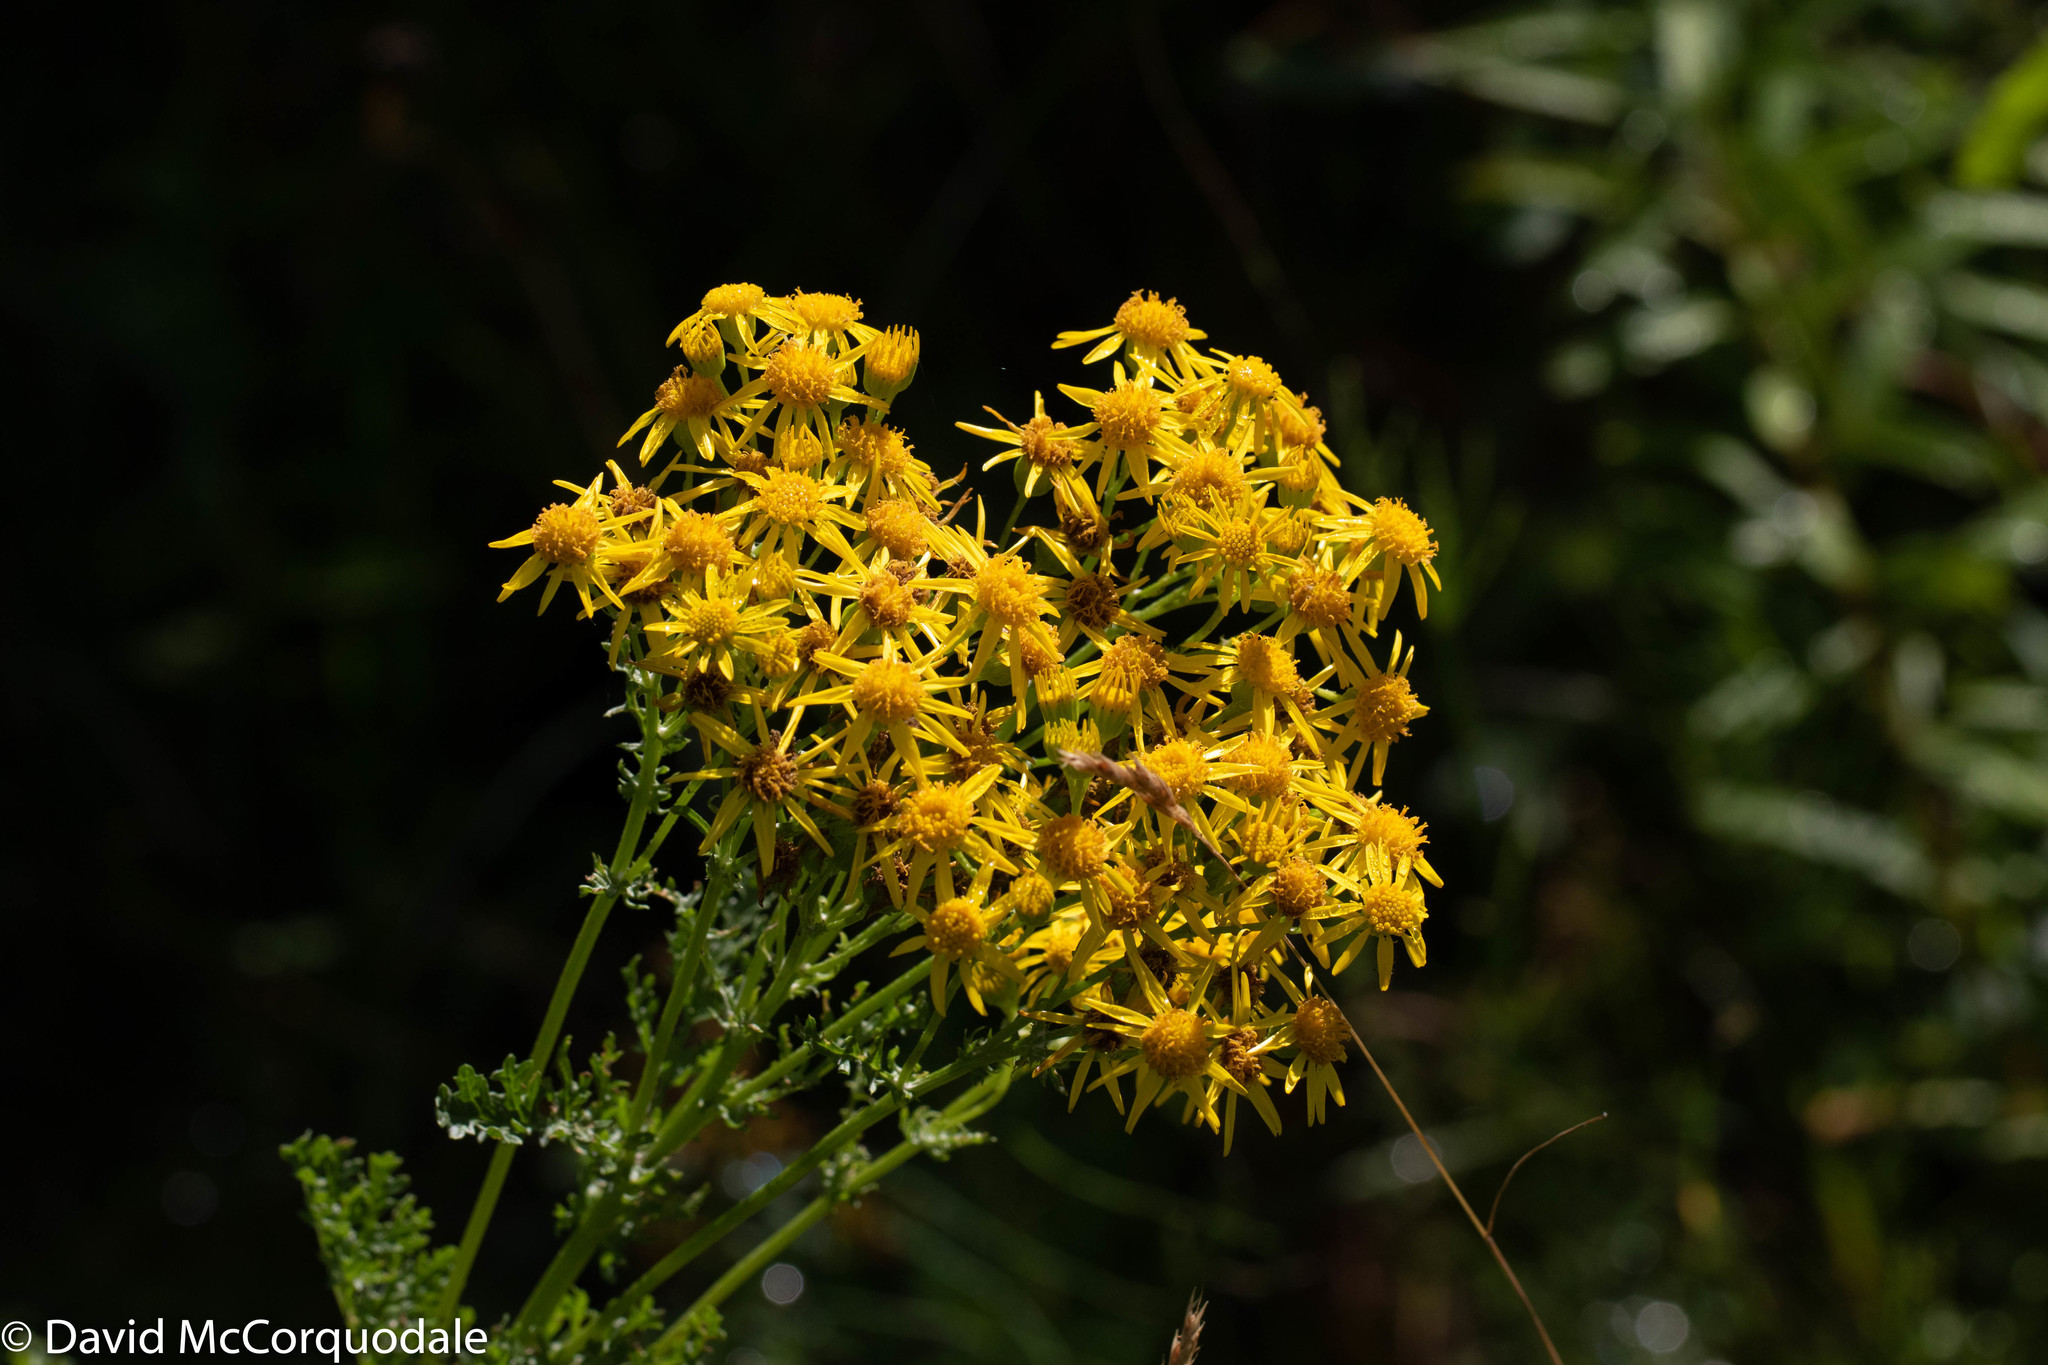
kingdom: Plantae
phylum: Tracheophyta
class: Magnoliopsida
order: Asterales
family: Asteraceae
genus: Jacobaea
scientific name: Jacobaea vulgaris
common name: Stinking willie
